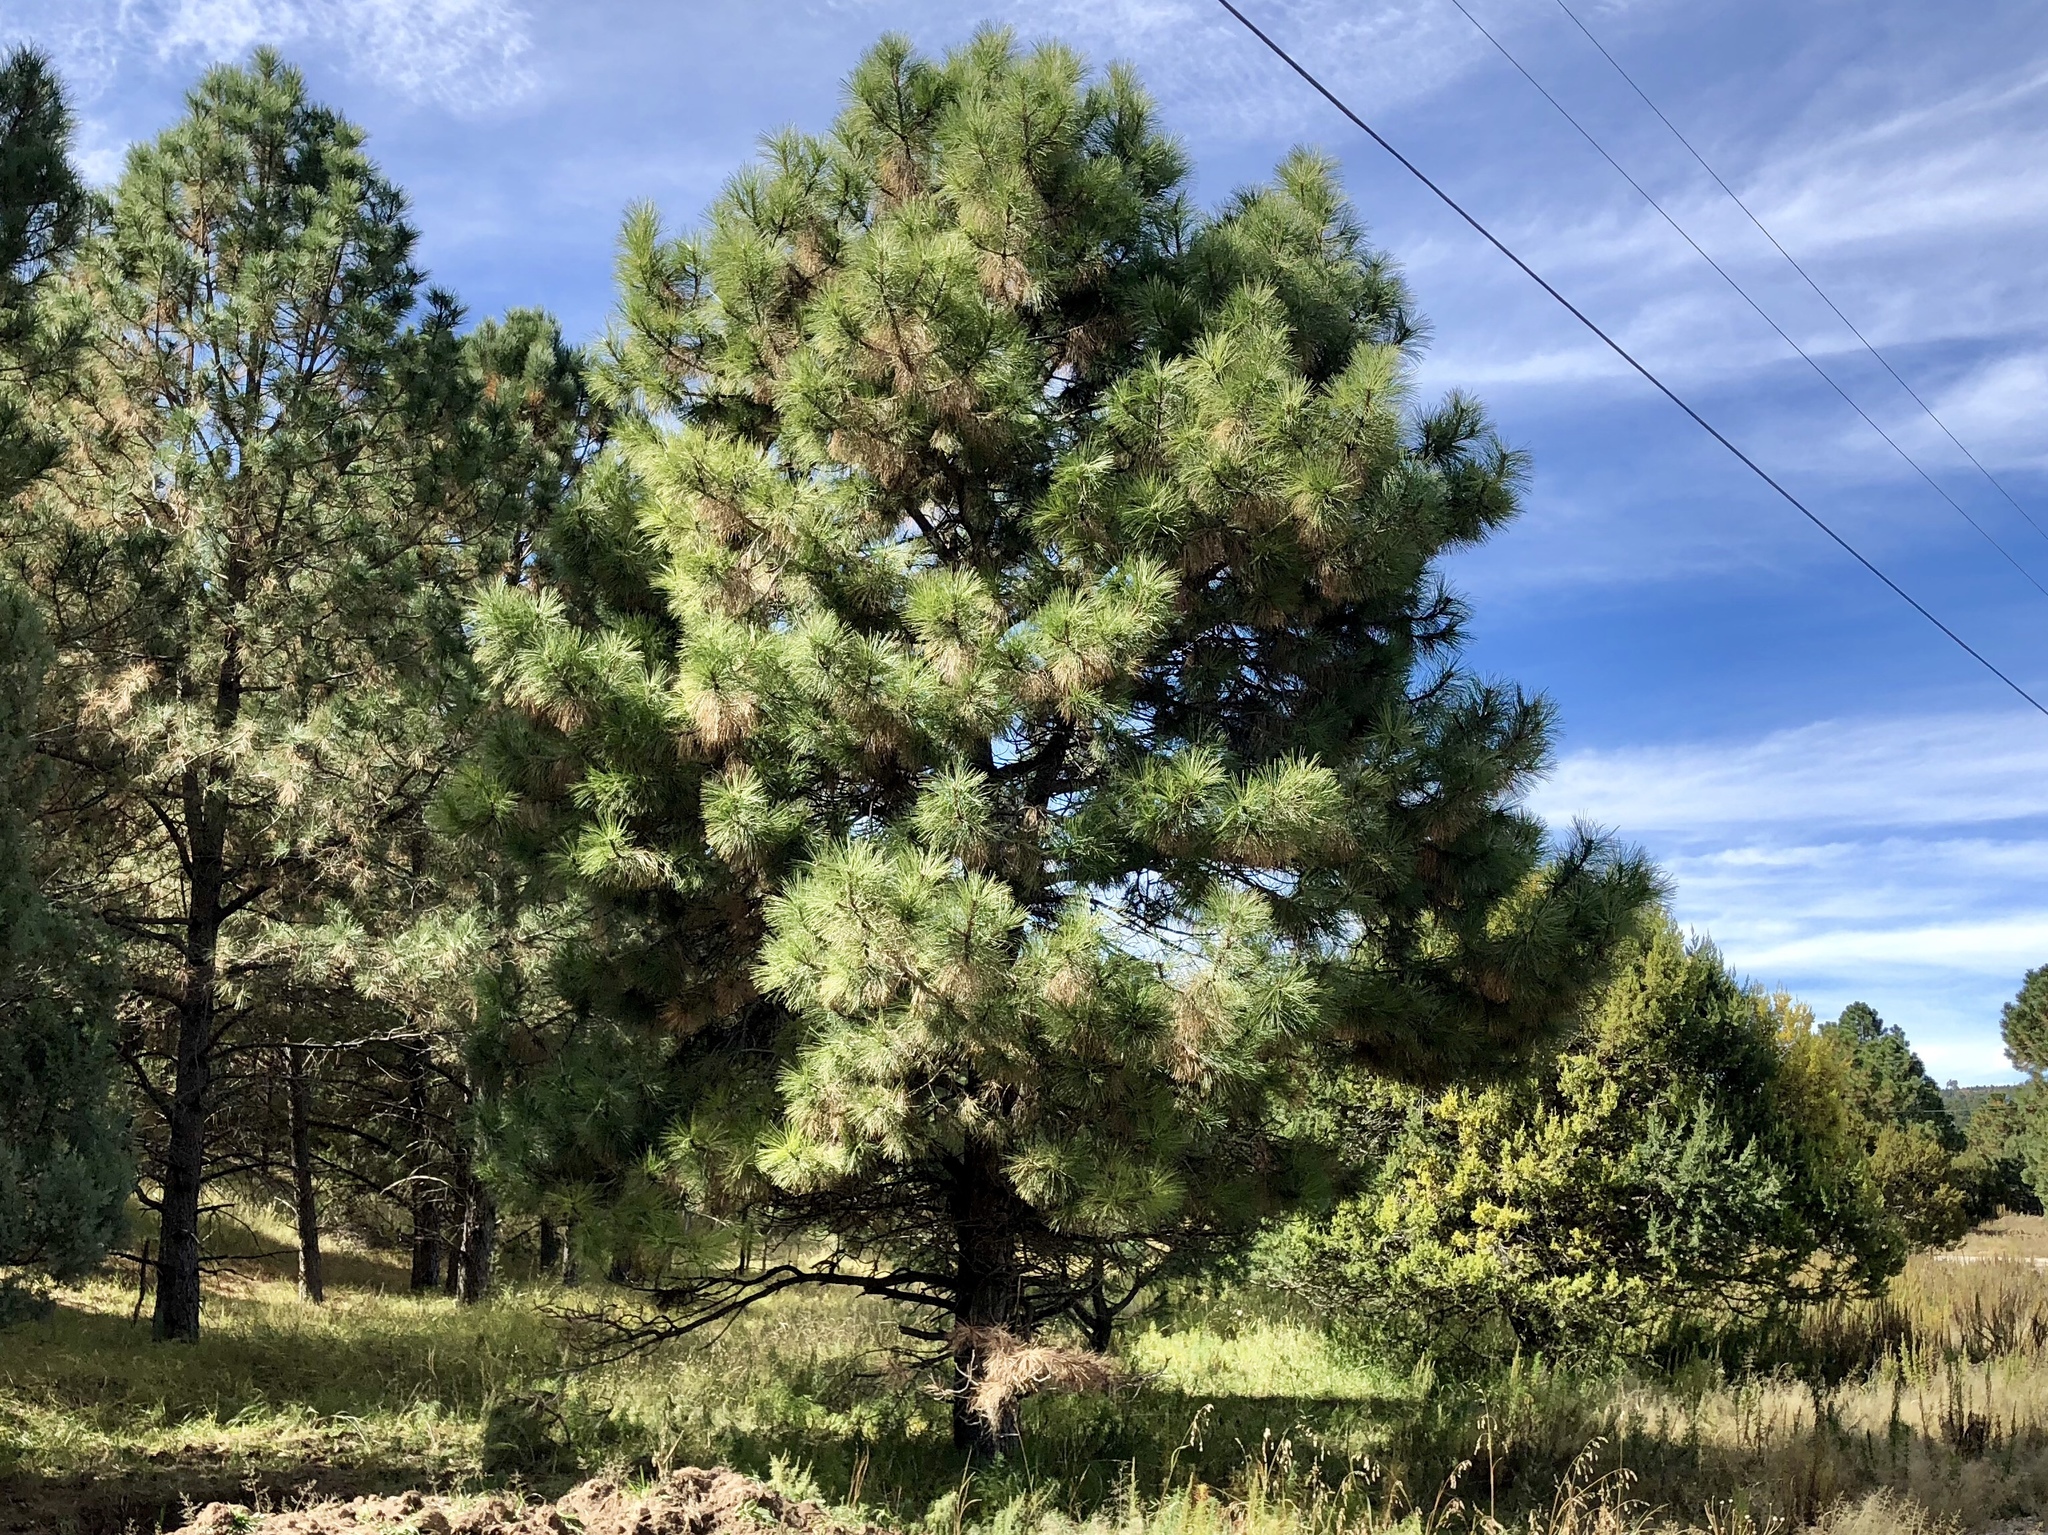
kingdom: Plantae
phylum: Tracheophyta
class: Pinopsida
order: Pinales
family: Pinaceae
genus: Pinus
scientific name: Pinus ponderosa
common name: Western yellow-pine
